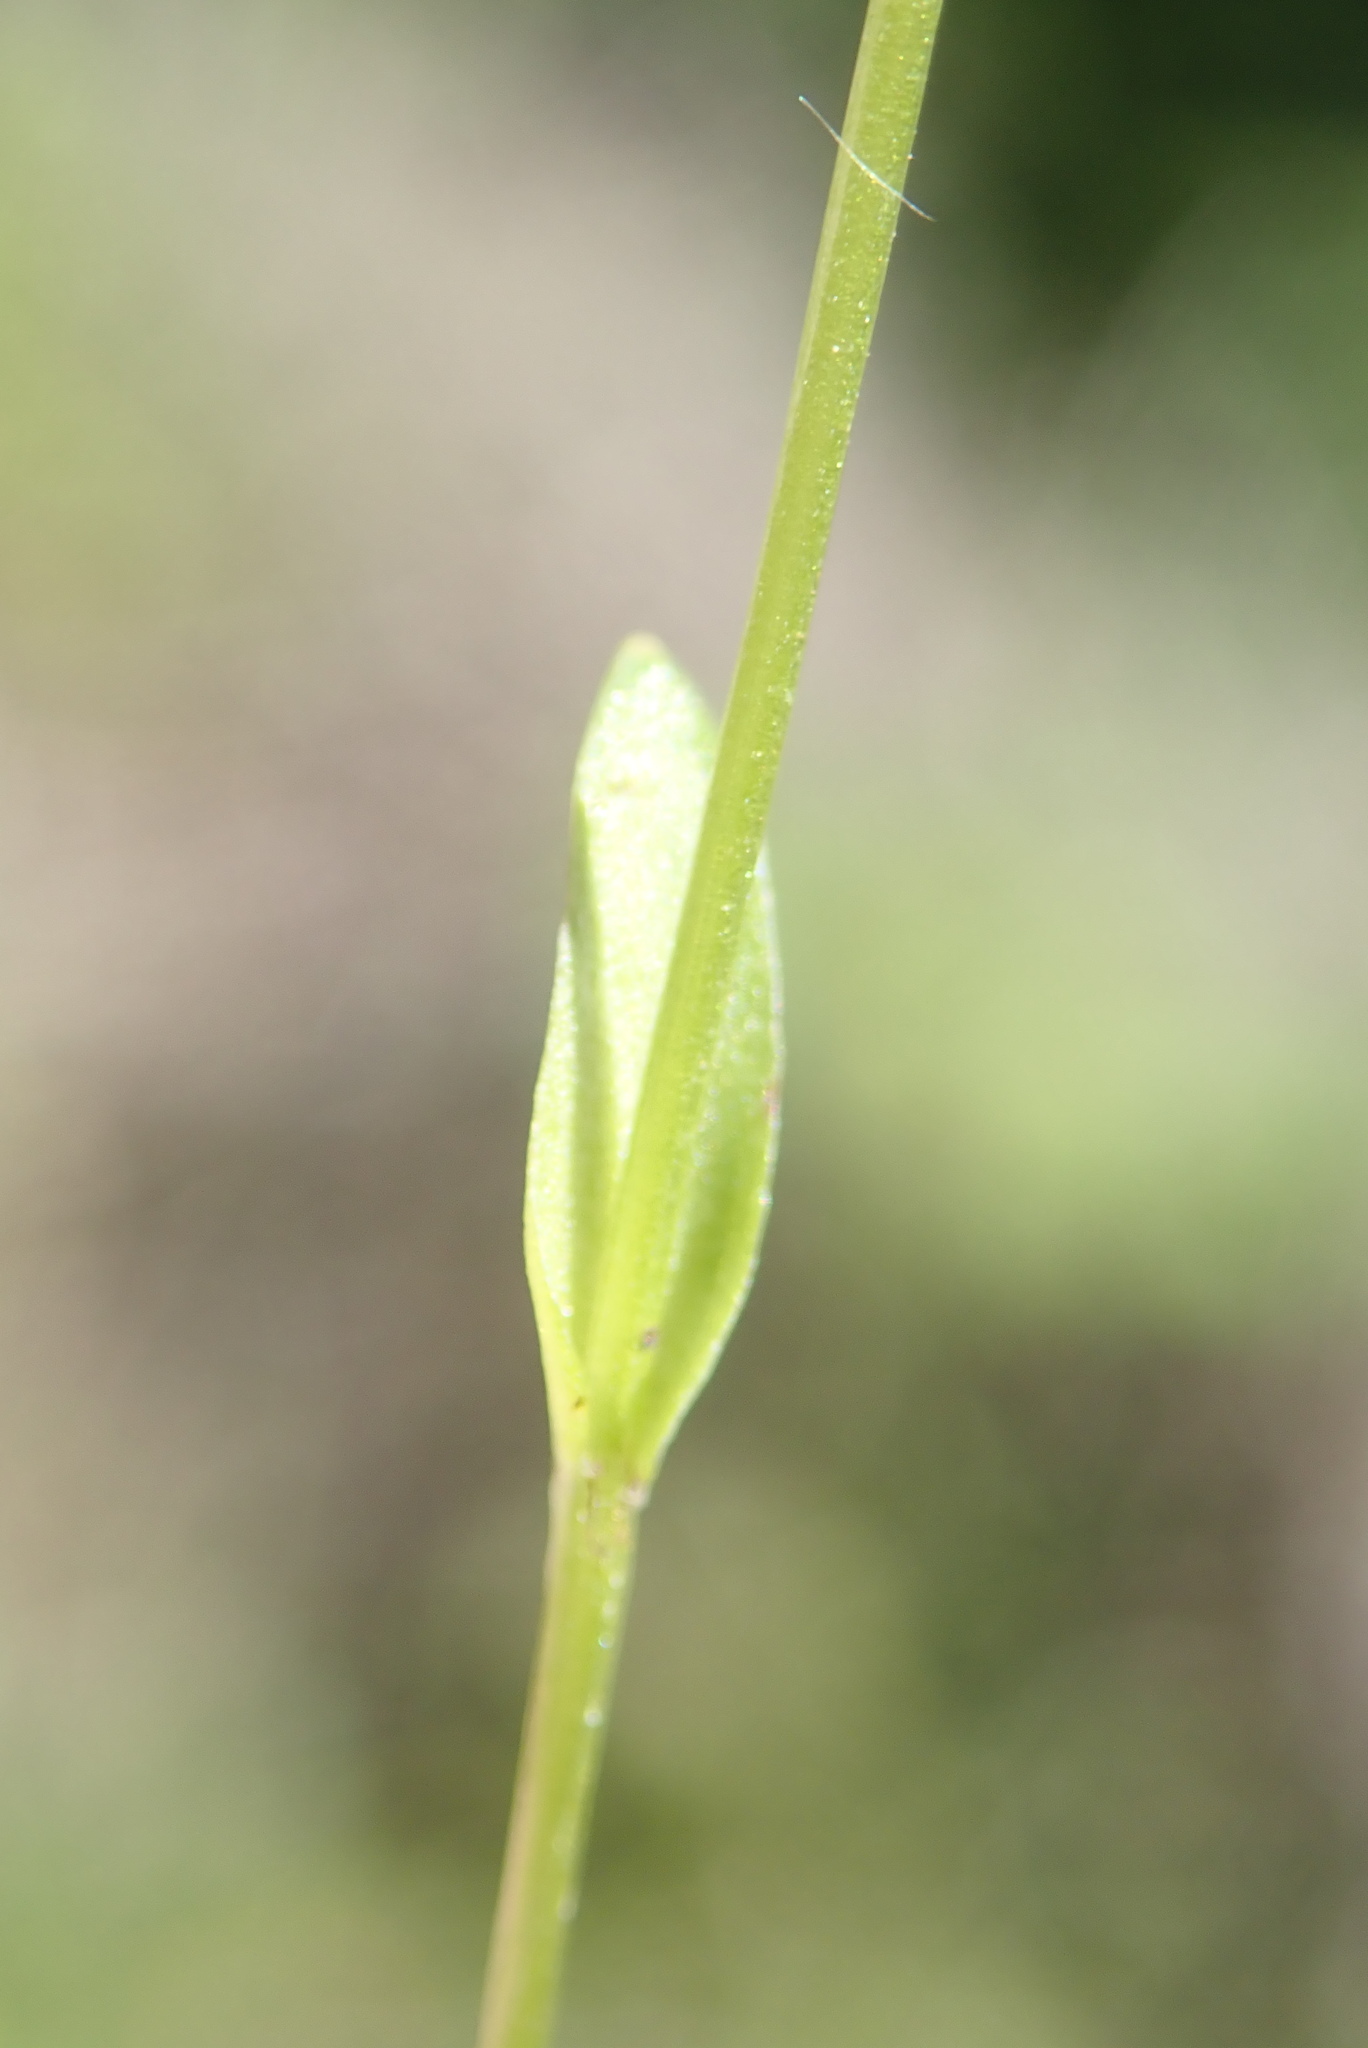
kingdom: Plantae
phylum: Tracheophyta
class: Magnoliopsida
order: Celastrales
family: Parnassiaceae
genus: Parnassia
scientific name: Parnassia parviflora
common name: Small-flowered grass-of-parnassus
